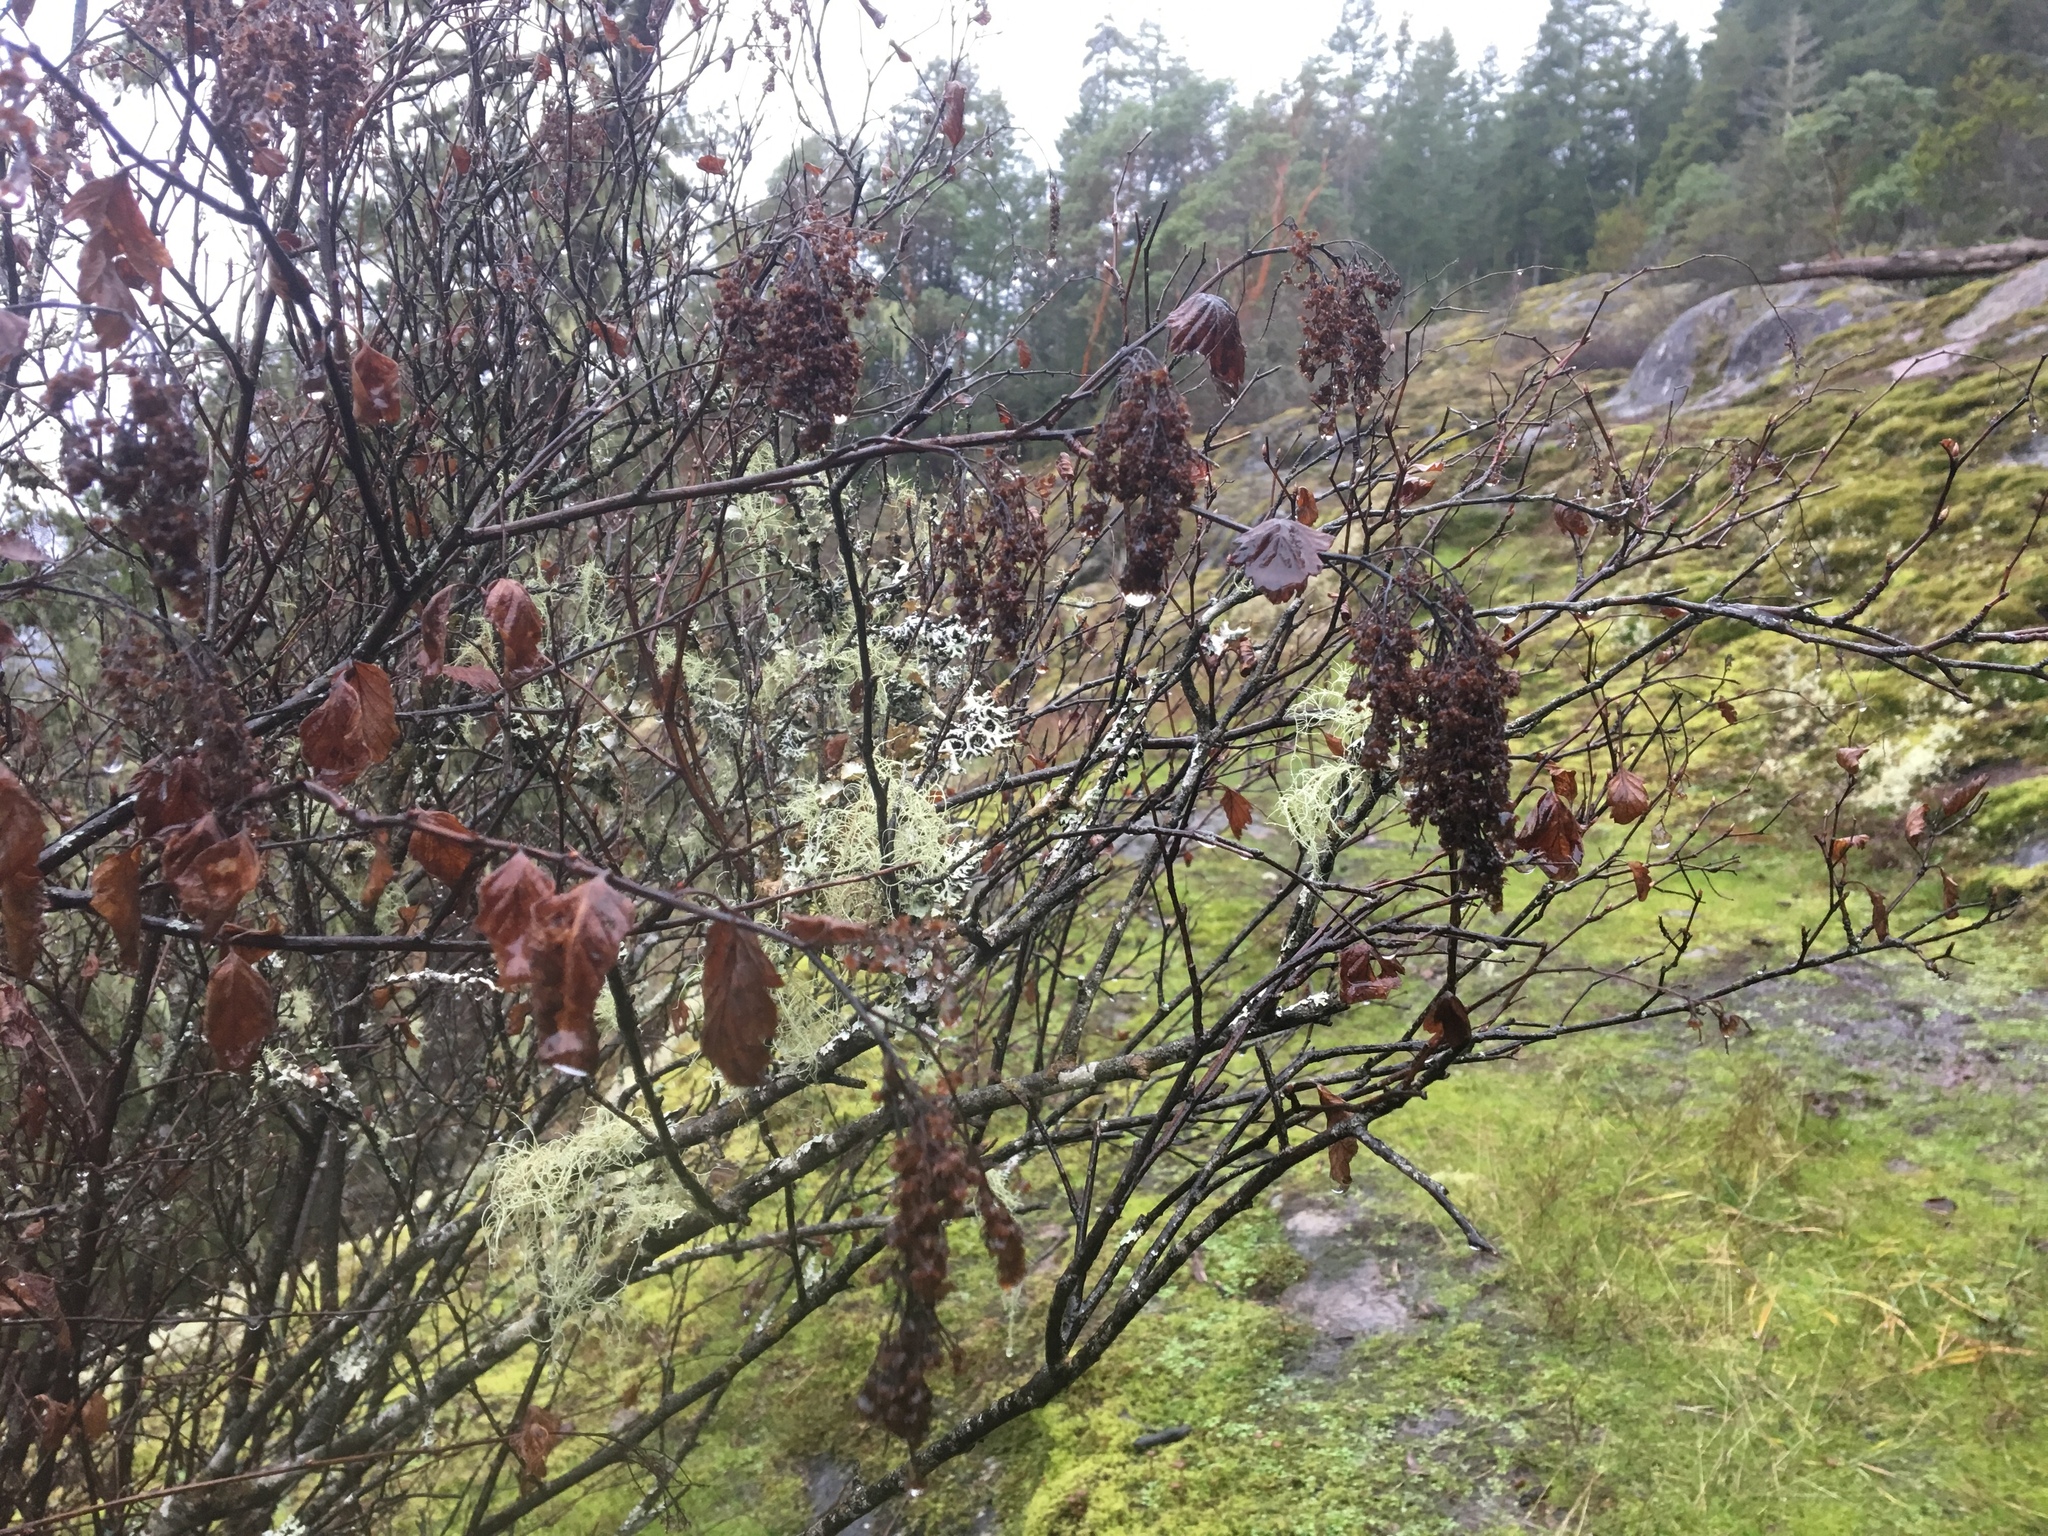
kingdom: Plantae
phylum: Tracheophyta
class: Magnoliopsida
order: Rosales
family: Rosaceae
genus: Holodiscus
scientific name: Holodiscus discolor
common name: Oceanspray
